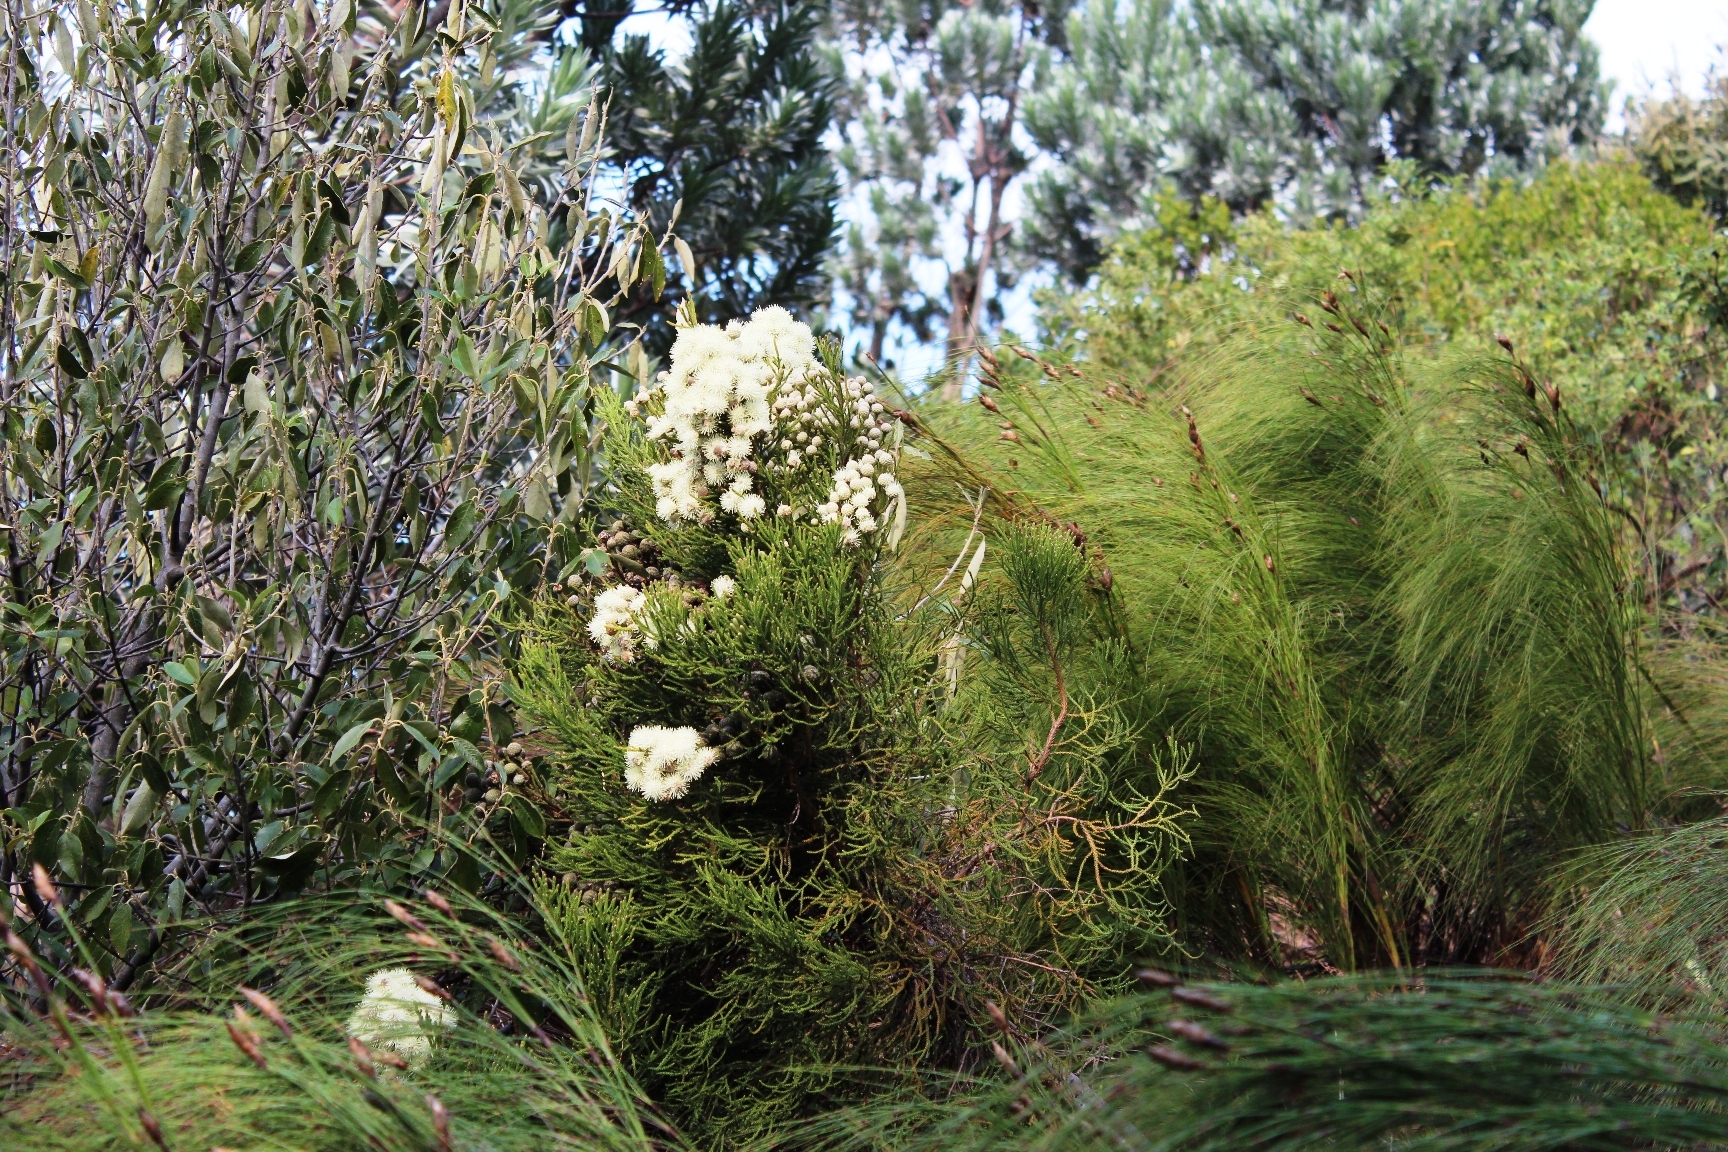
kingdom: Plantae
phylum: Tracheophyta
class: Magnoliopsida
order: Bruniales
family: Bruniaceae
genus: Brunia
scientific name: Brunia noduliflora
